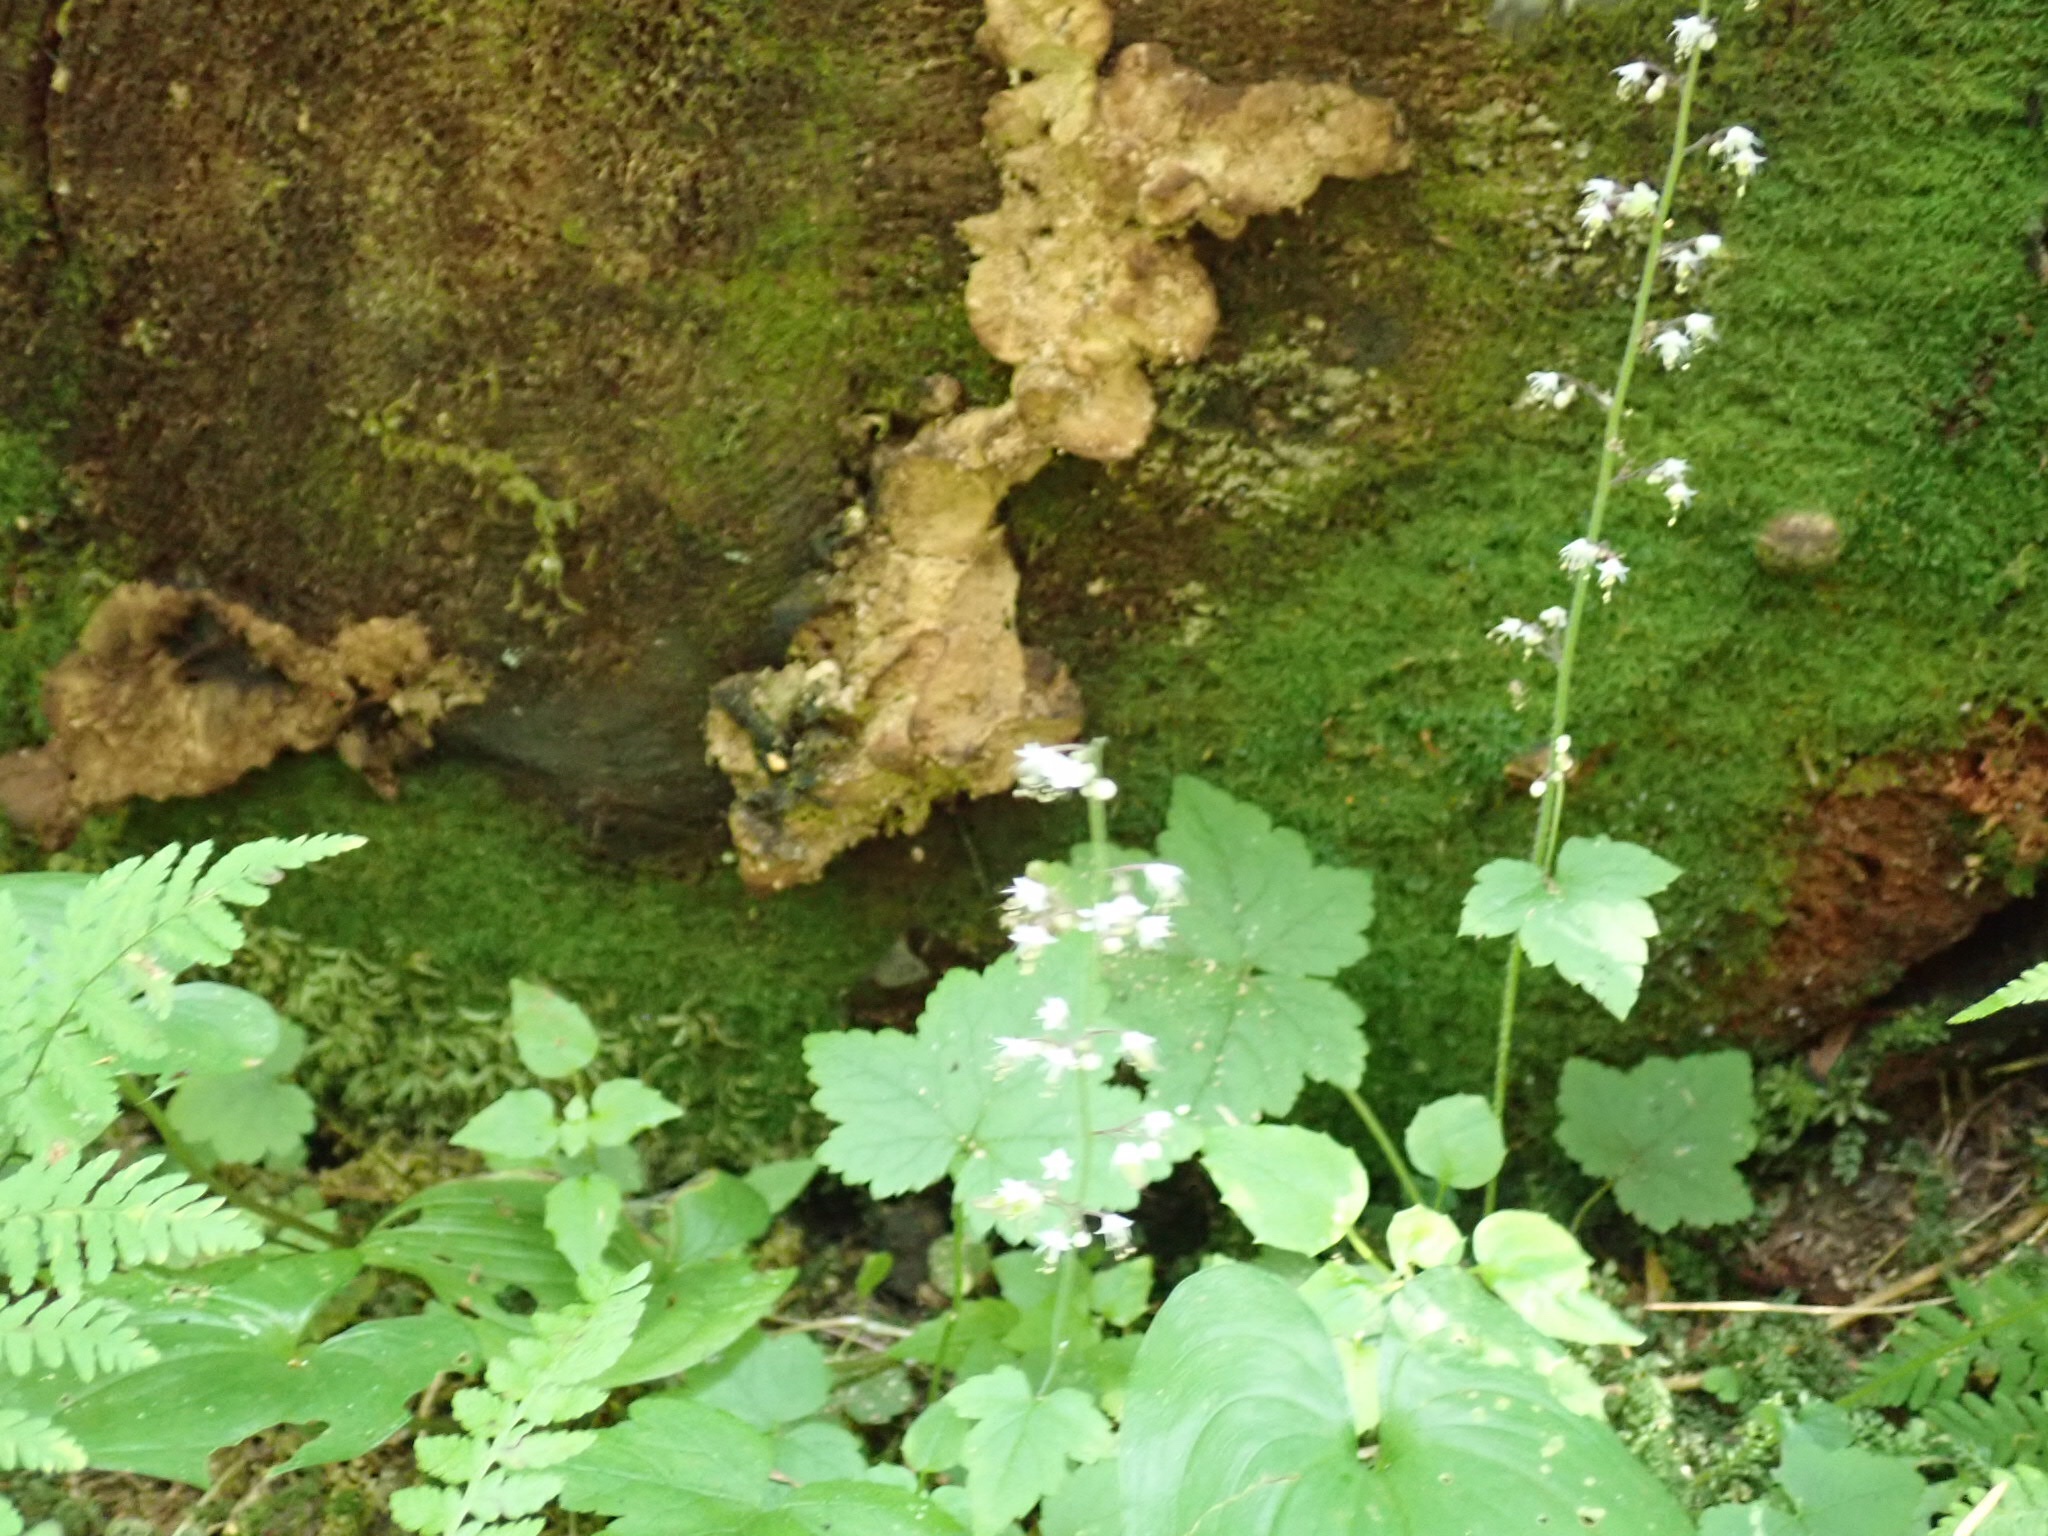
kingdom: Plantae
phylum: Tracheophyta
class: Magnoliopsida
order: Saxifragales
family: Saxifragaceae
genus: Tiarella
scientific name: Tiarella trifoliata
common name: Sugar-scoop
